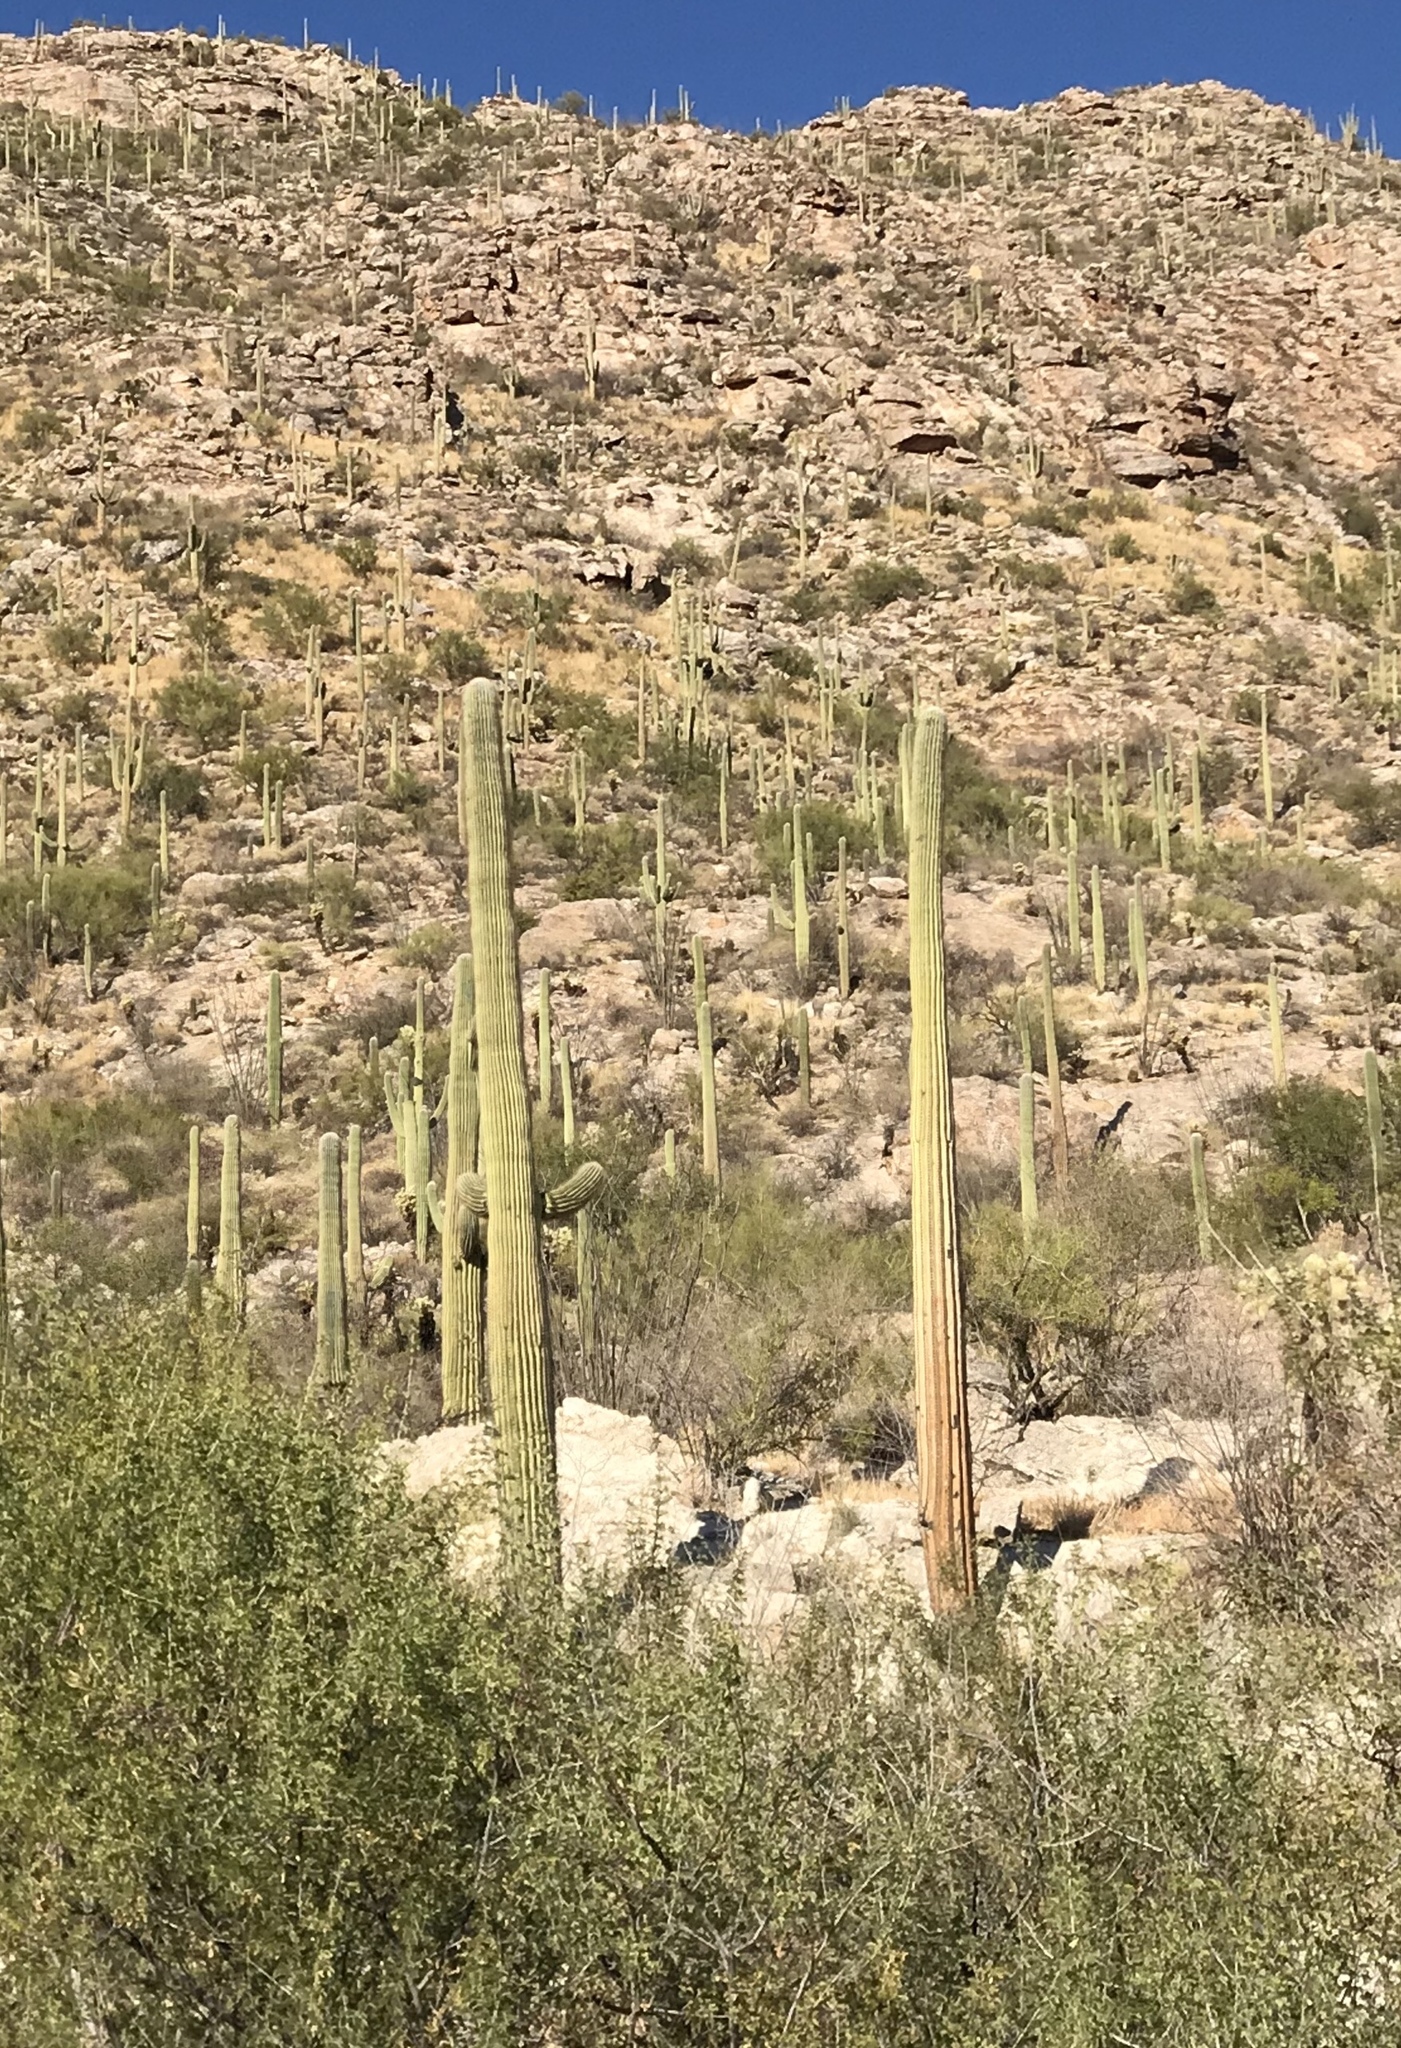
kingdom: Plantae
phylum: Tracheophyta
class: Magnoliopsida
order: Caryophyllales
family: Cactaceae
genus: Carnegiea
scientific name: Carnegiea gigantea
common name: Saguaro
